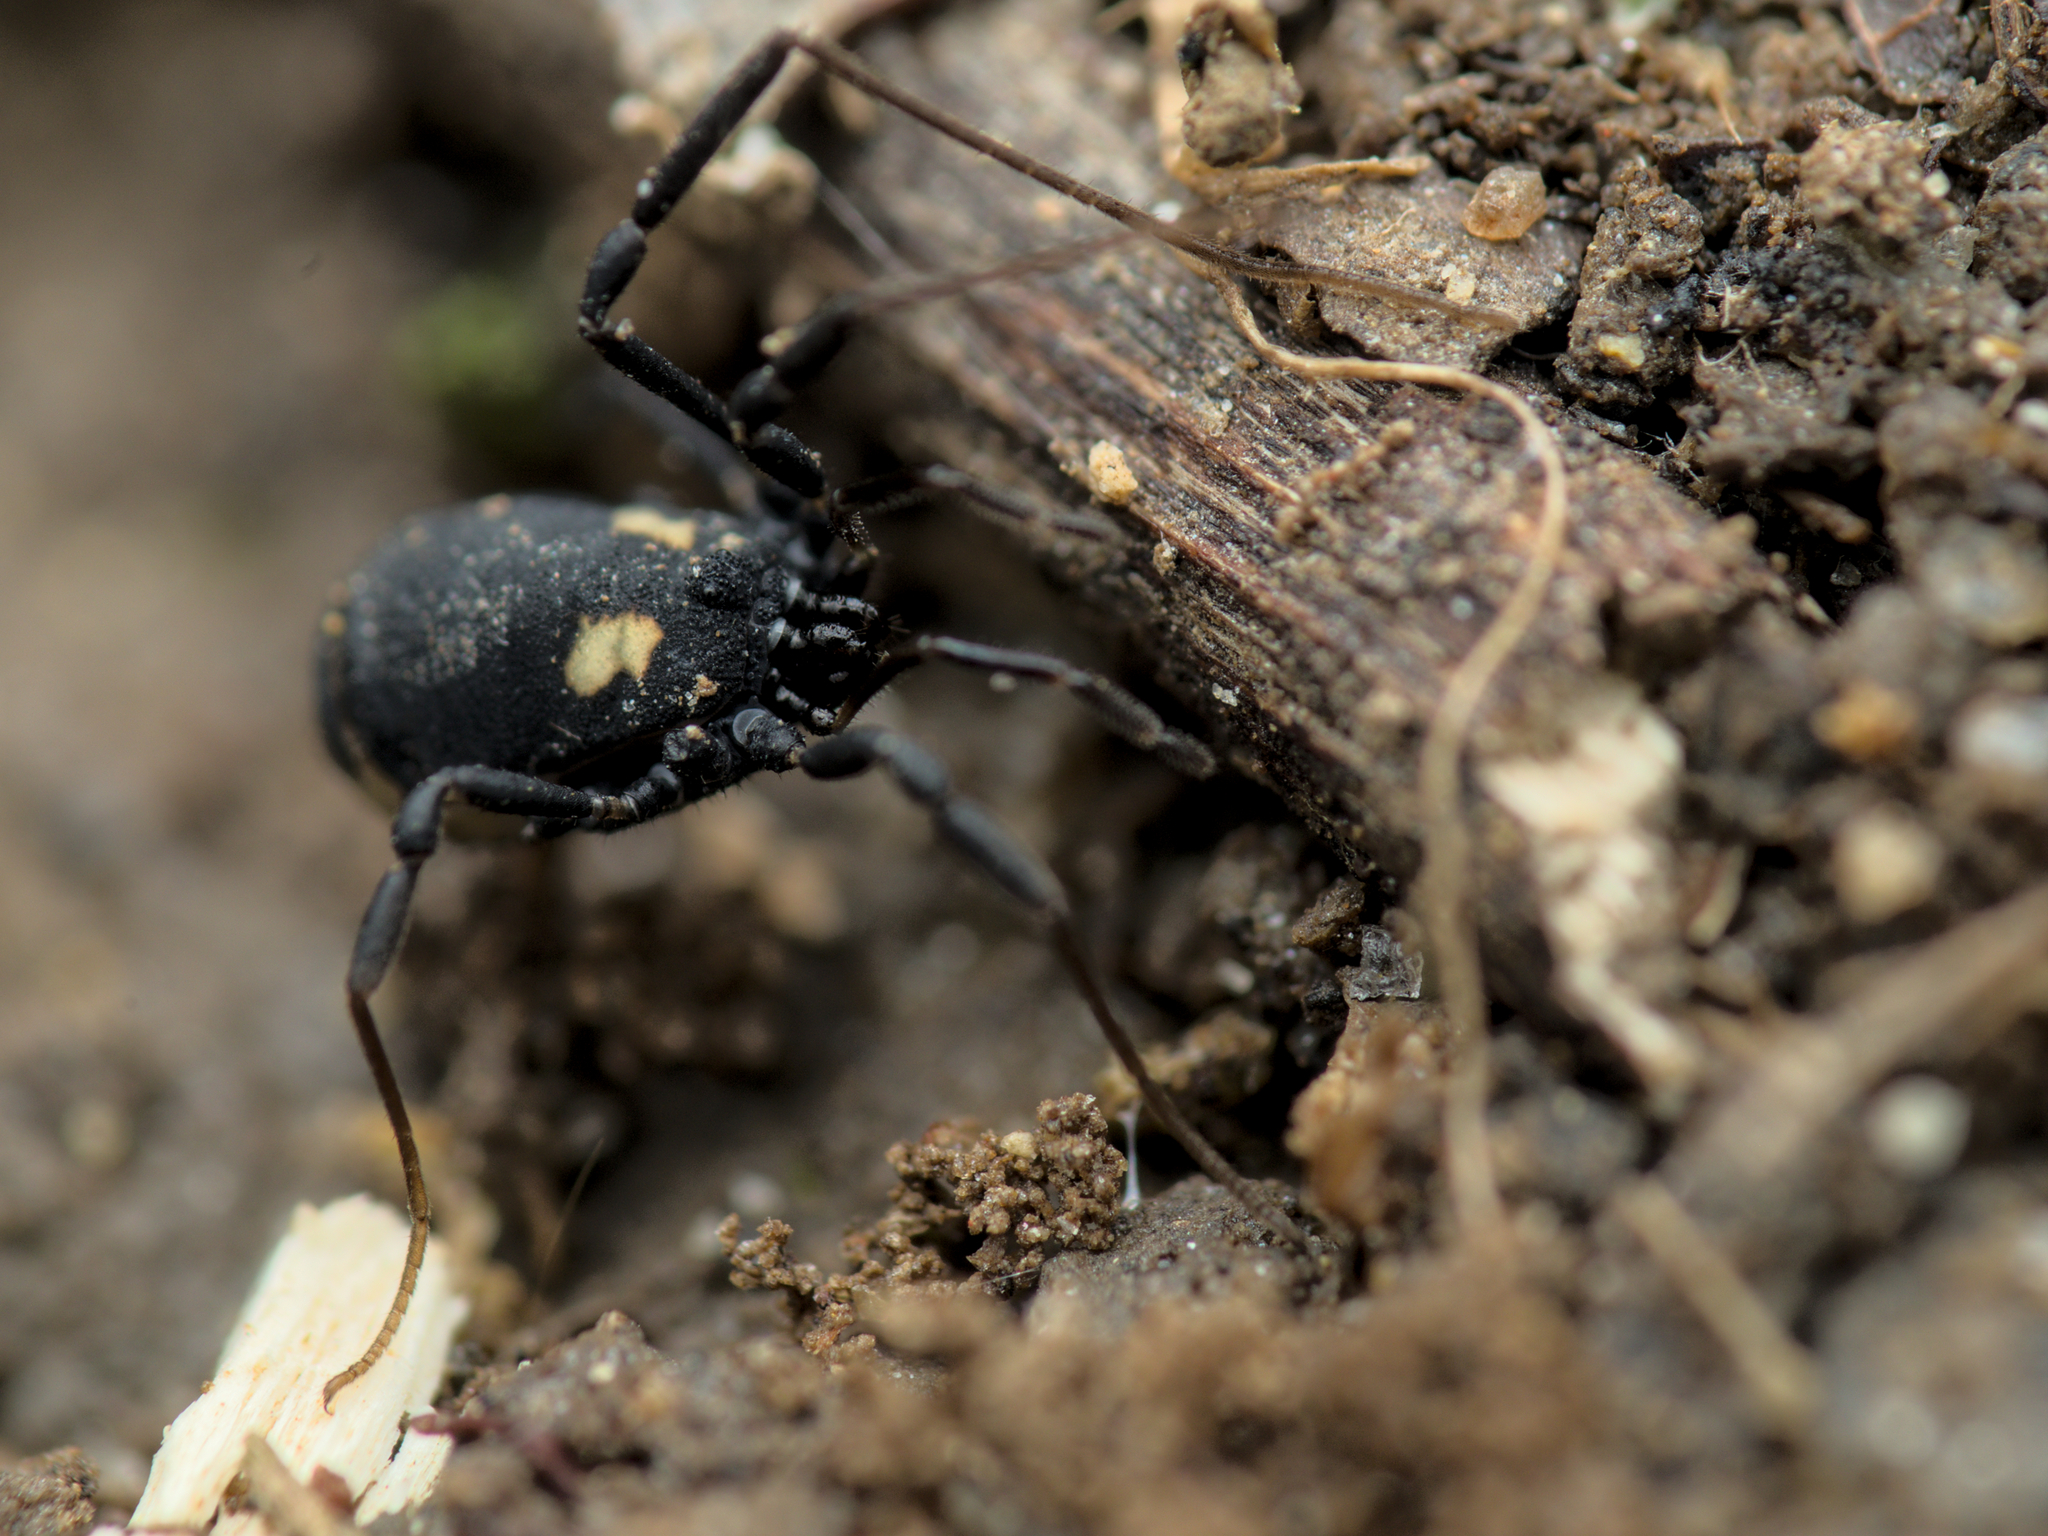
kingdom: Animalia
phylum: Arthropoda
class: Arachnida
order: Opiliones
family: Nemastomatidae
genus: Nemastoma
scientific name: Nemastoma bimaculatum
